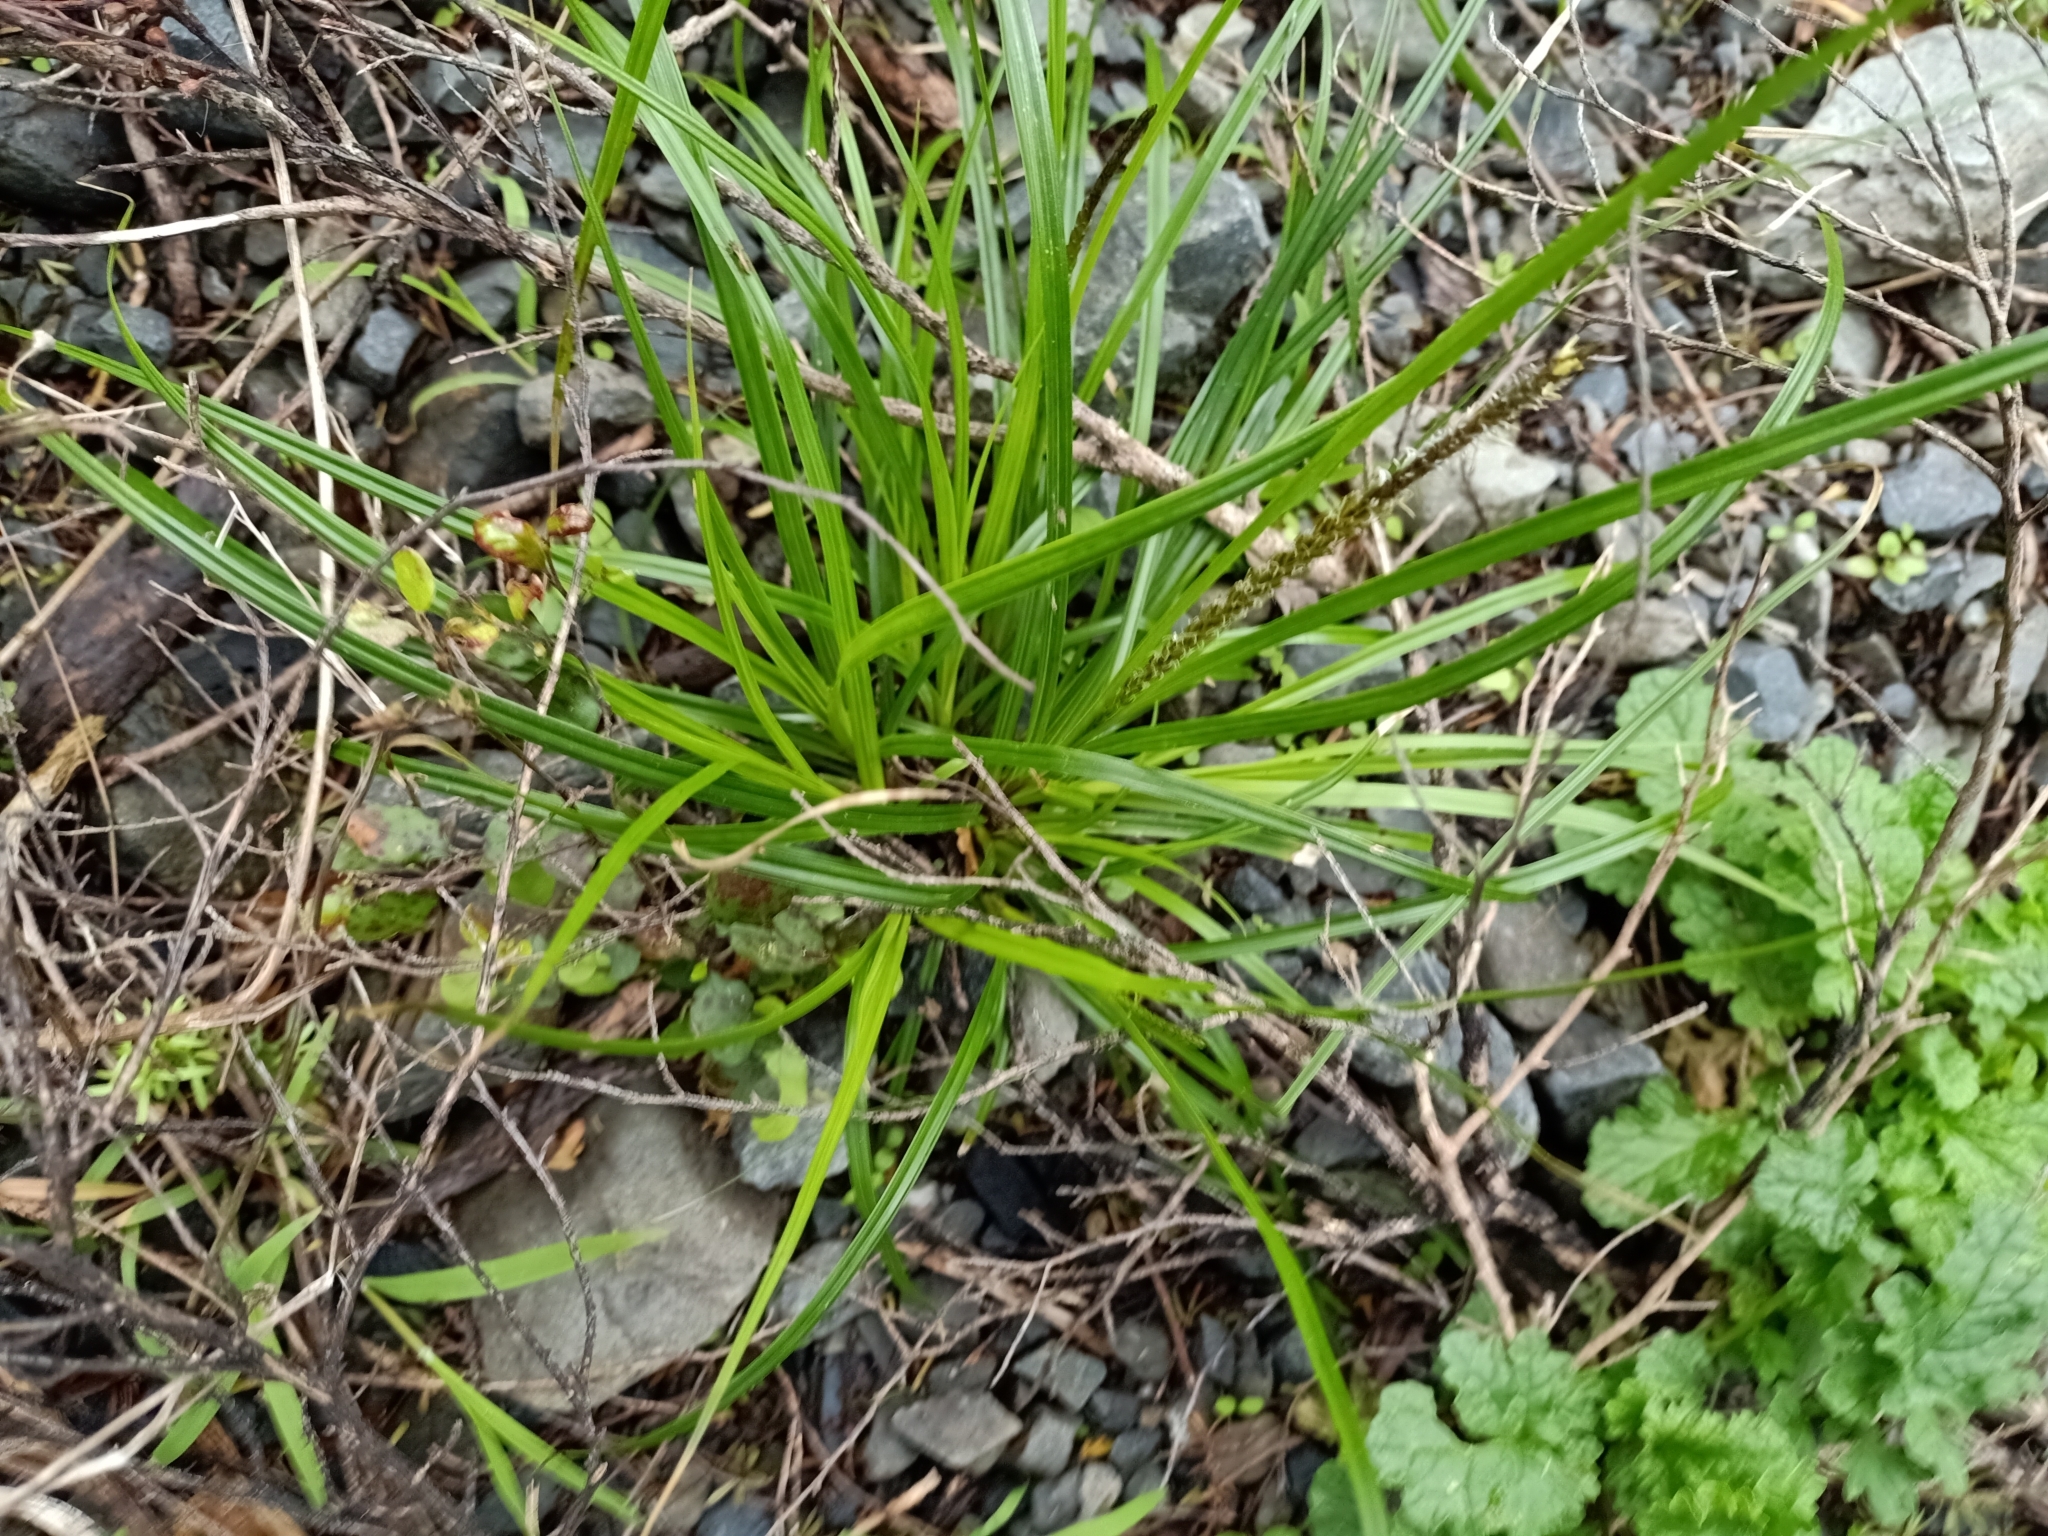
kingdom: Plantae
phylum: Tracheophyta
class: Liliopsida
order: Poales
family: Cyperaceae
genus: Carex
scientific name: Carex uncinata
